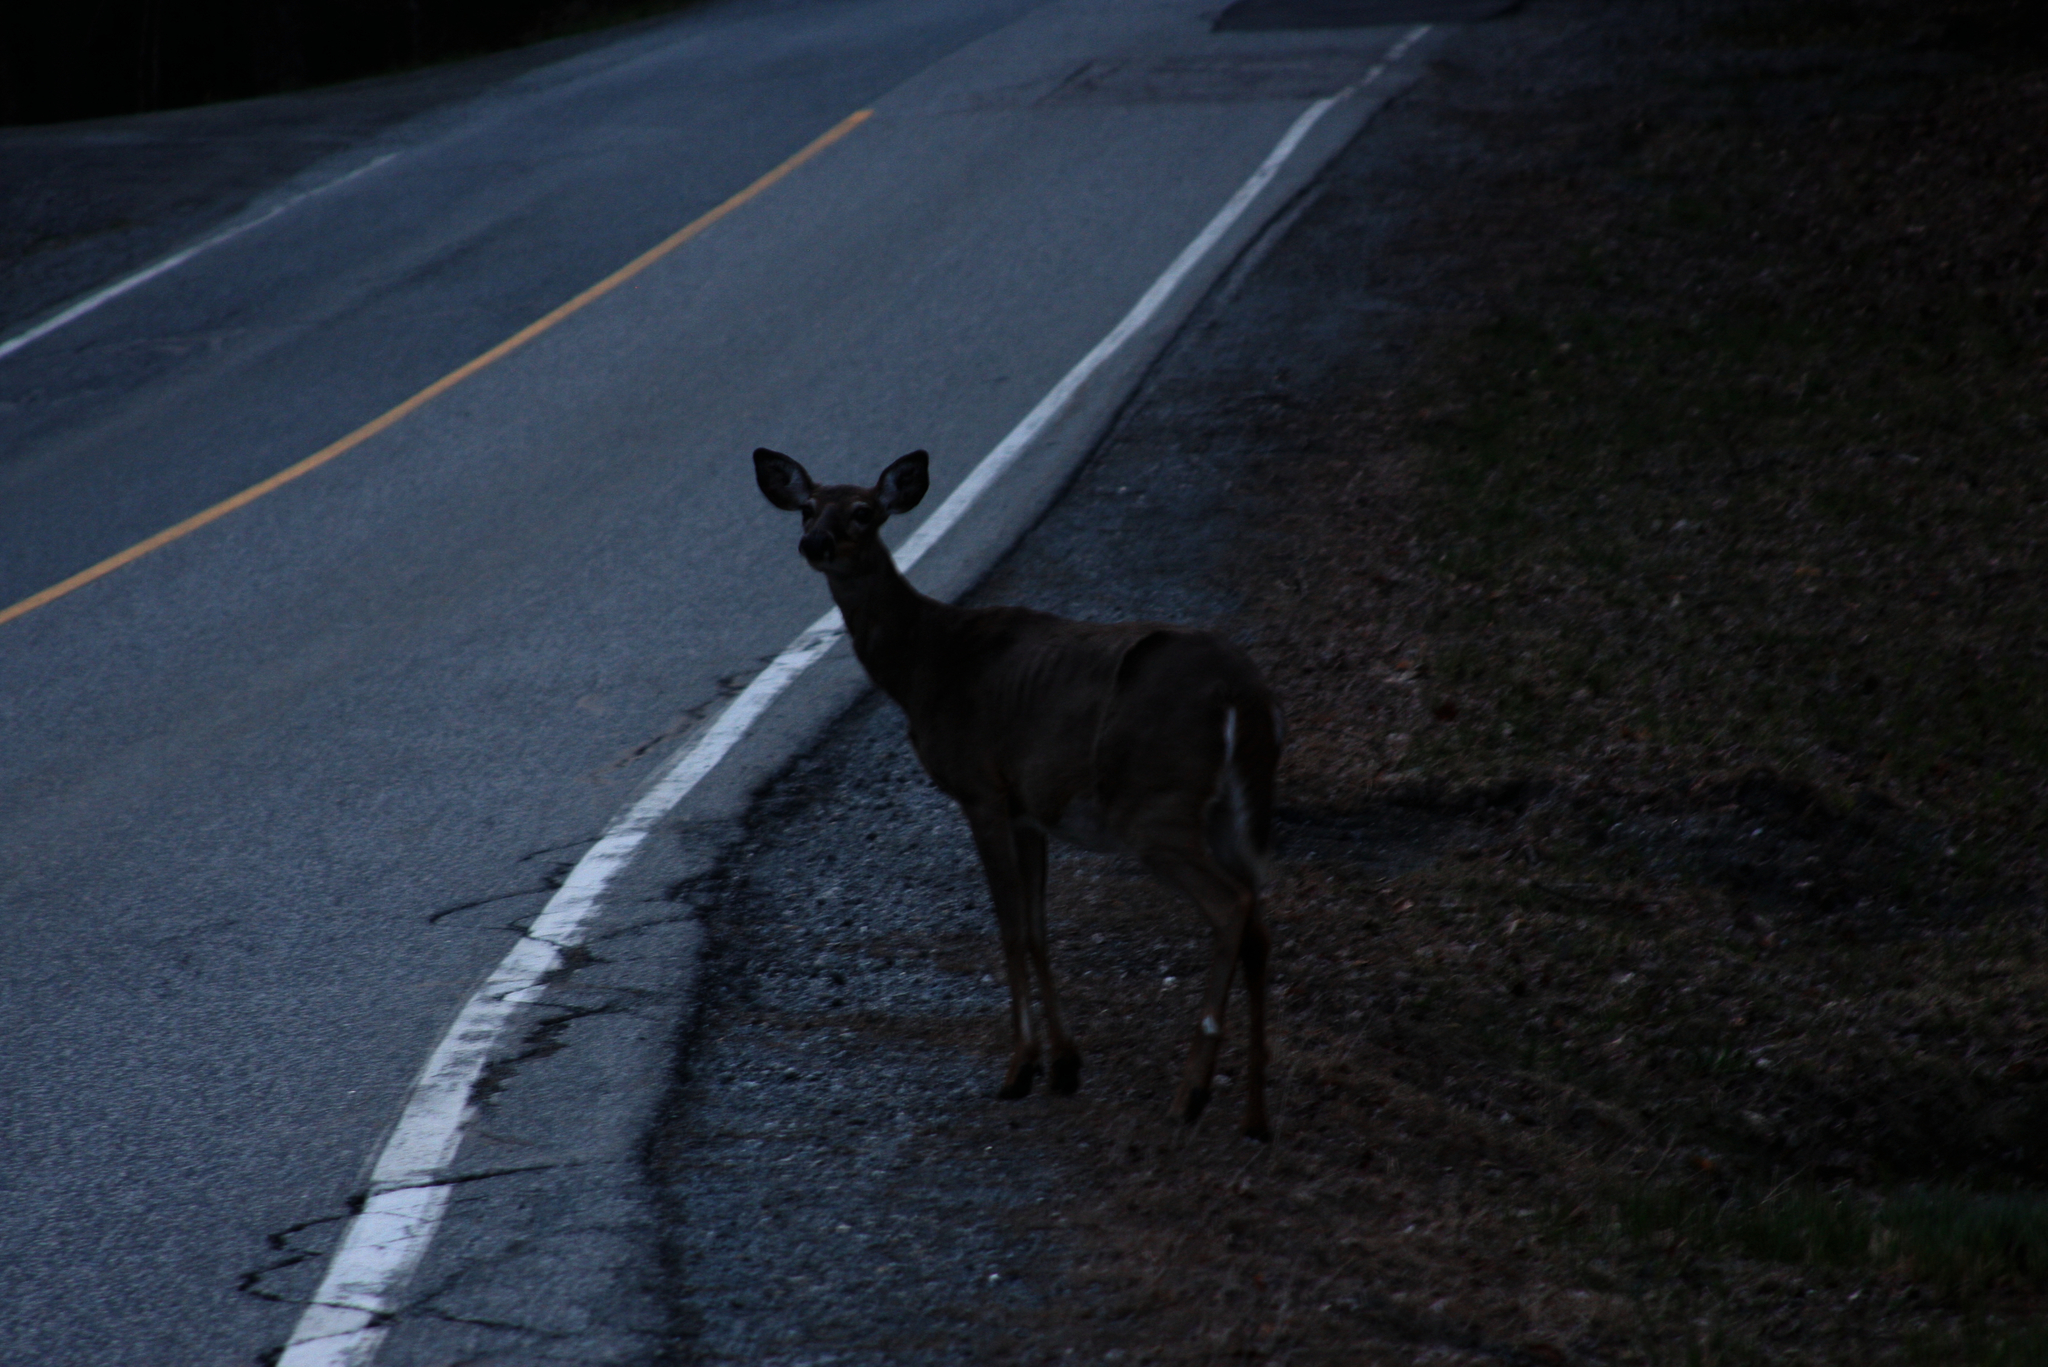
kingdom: Animalia
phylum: Chordata
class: Mammalia
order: Artiodactyla
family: Cervidae
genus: Odocoileus
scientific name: Odocoileus virginianus
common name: White-tailed deer
